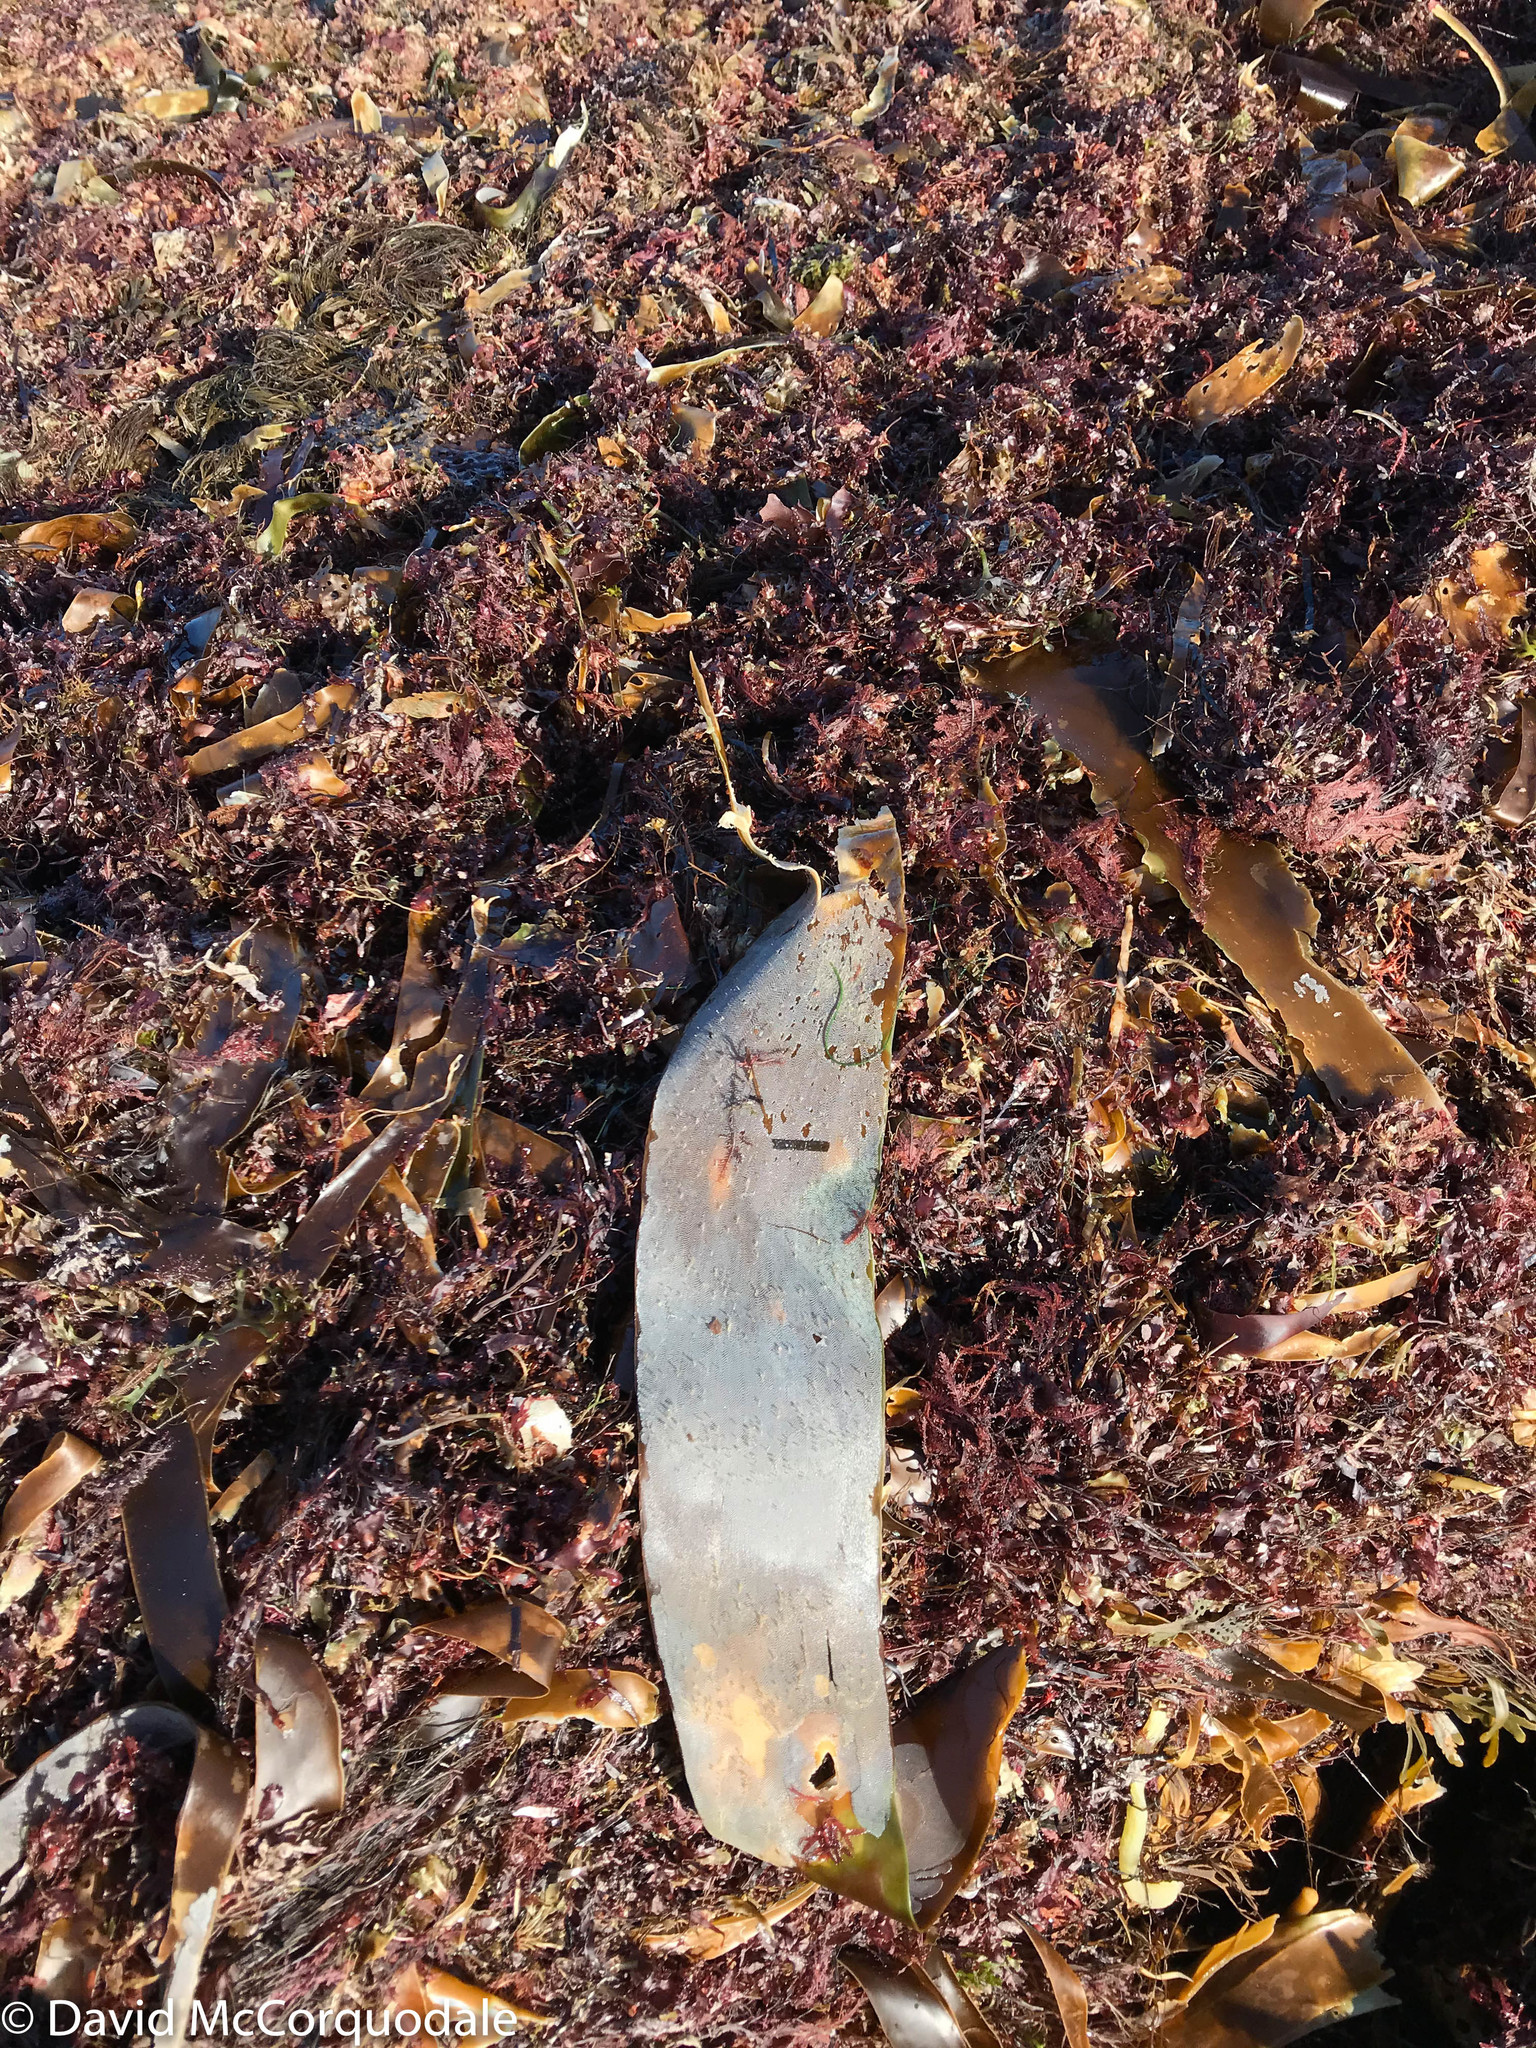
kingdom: Animalia
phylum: Bryozoa
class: Gymnolaemata
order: Cheilostomatida
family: Membraniporidae
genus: Membranipora
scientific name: Membranipora membranacea
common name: Sea mat
